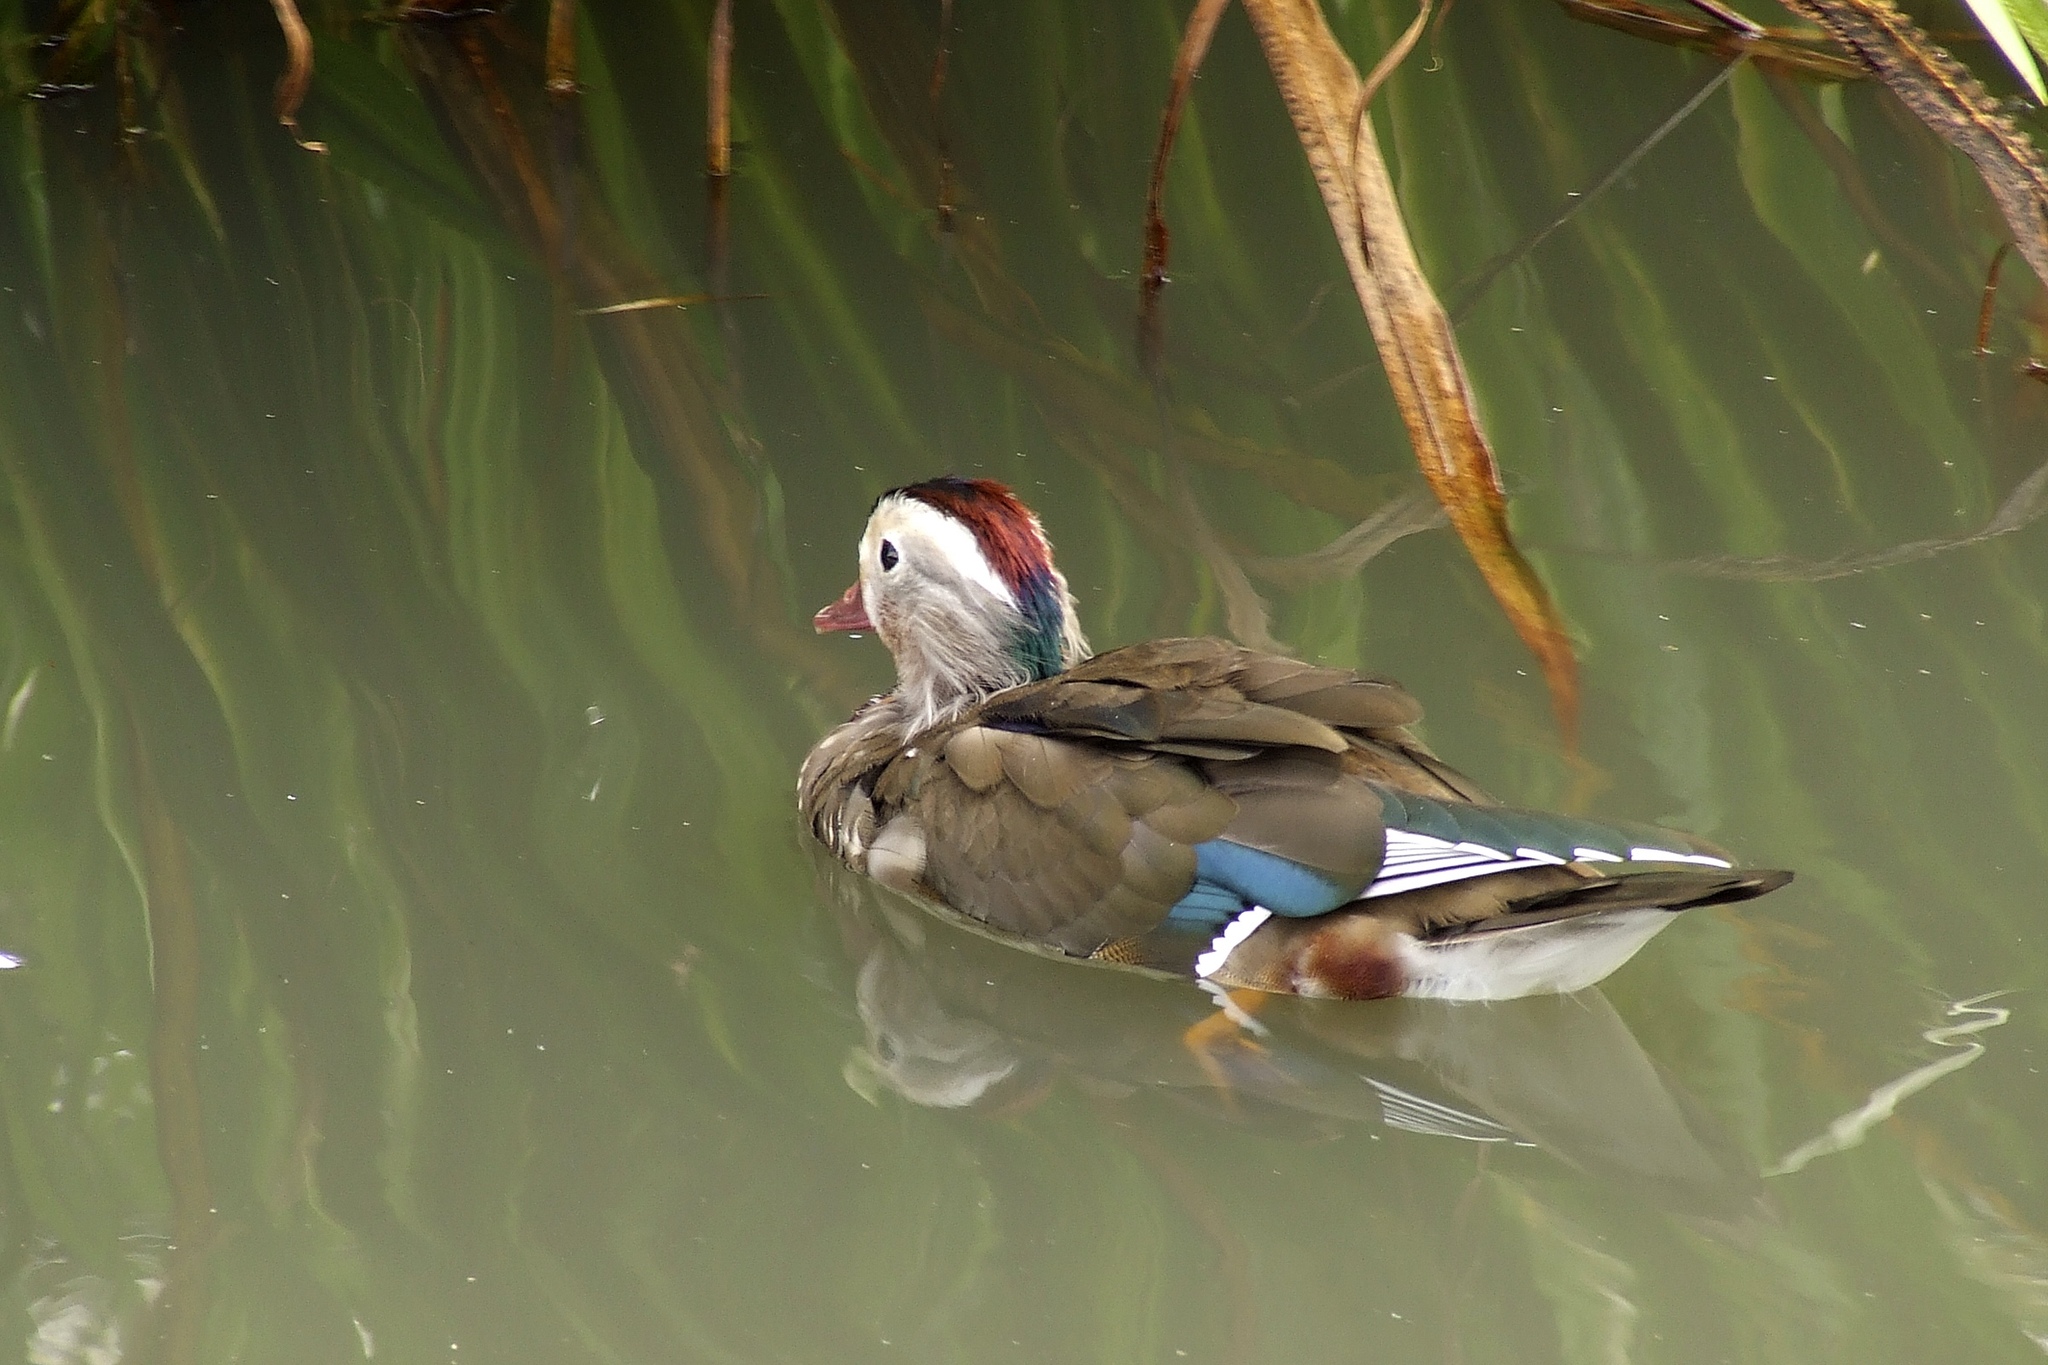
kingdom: Animalia
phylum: Chordata
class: Aves
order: Anseriformes
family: Anatidae
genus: Aix
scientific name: Aix galericulata
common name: Mandarin duck
